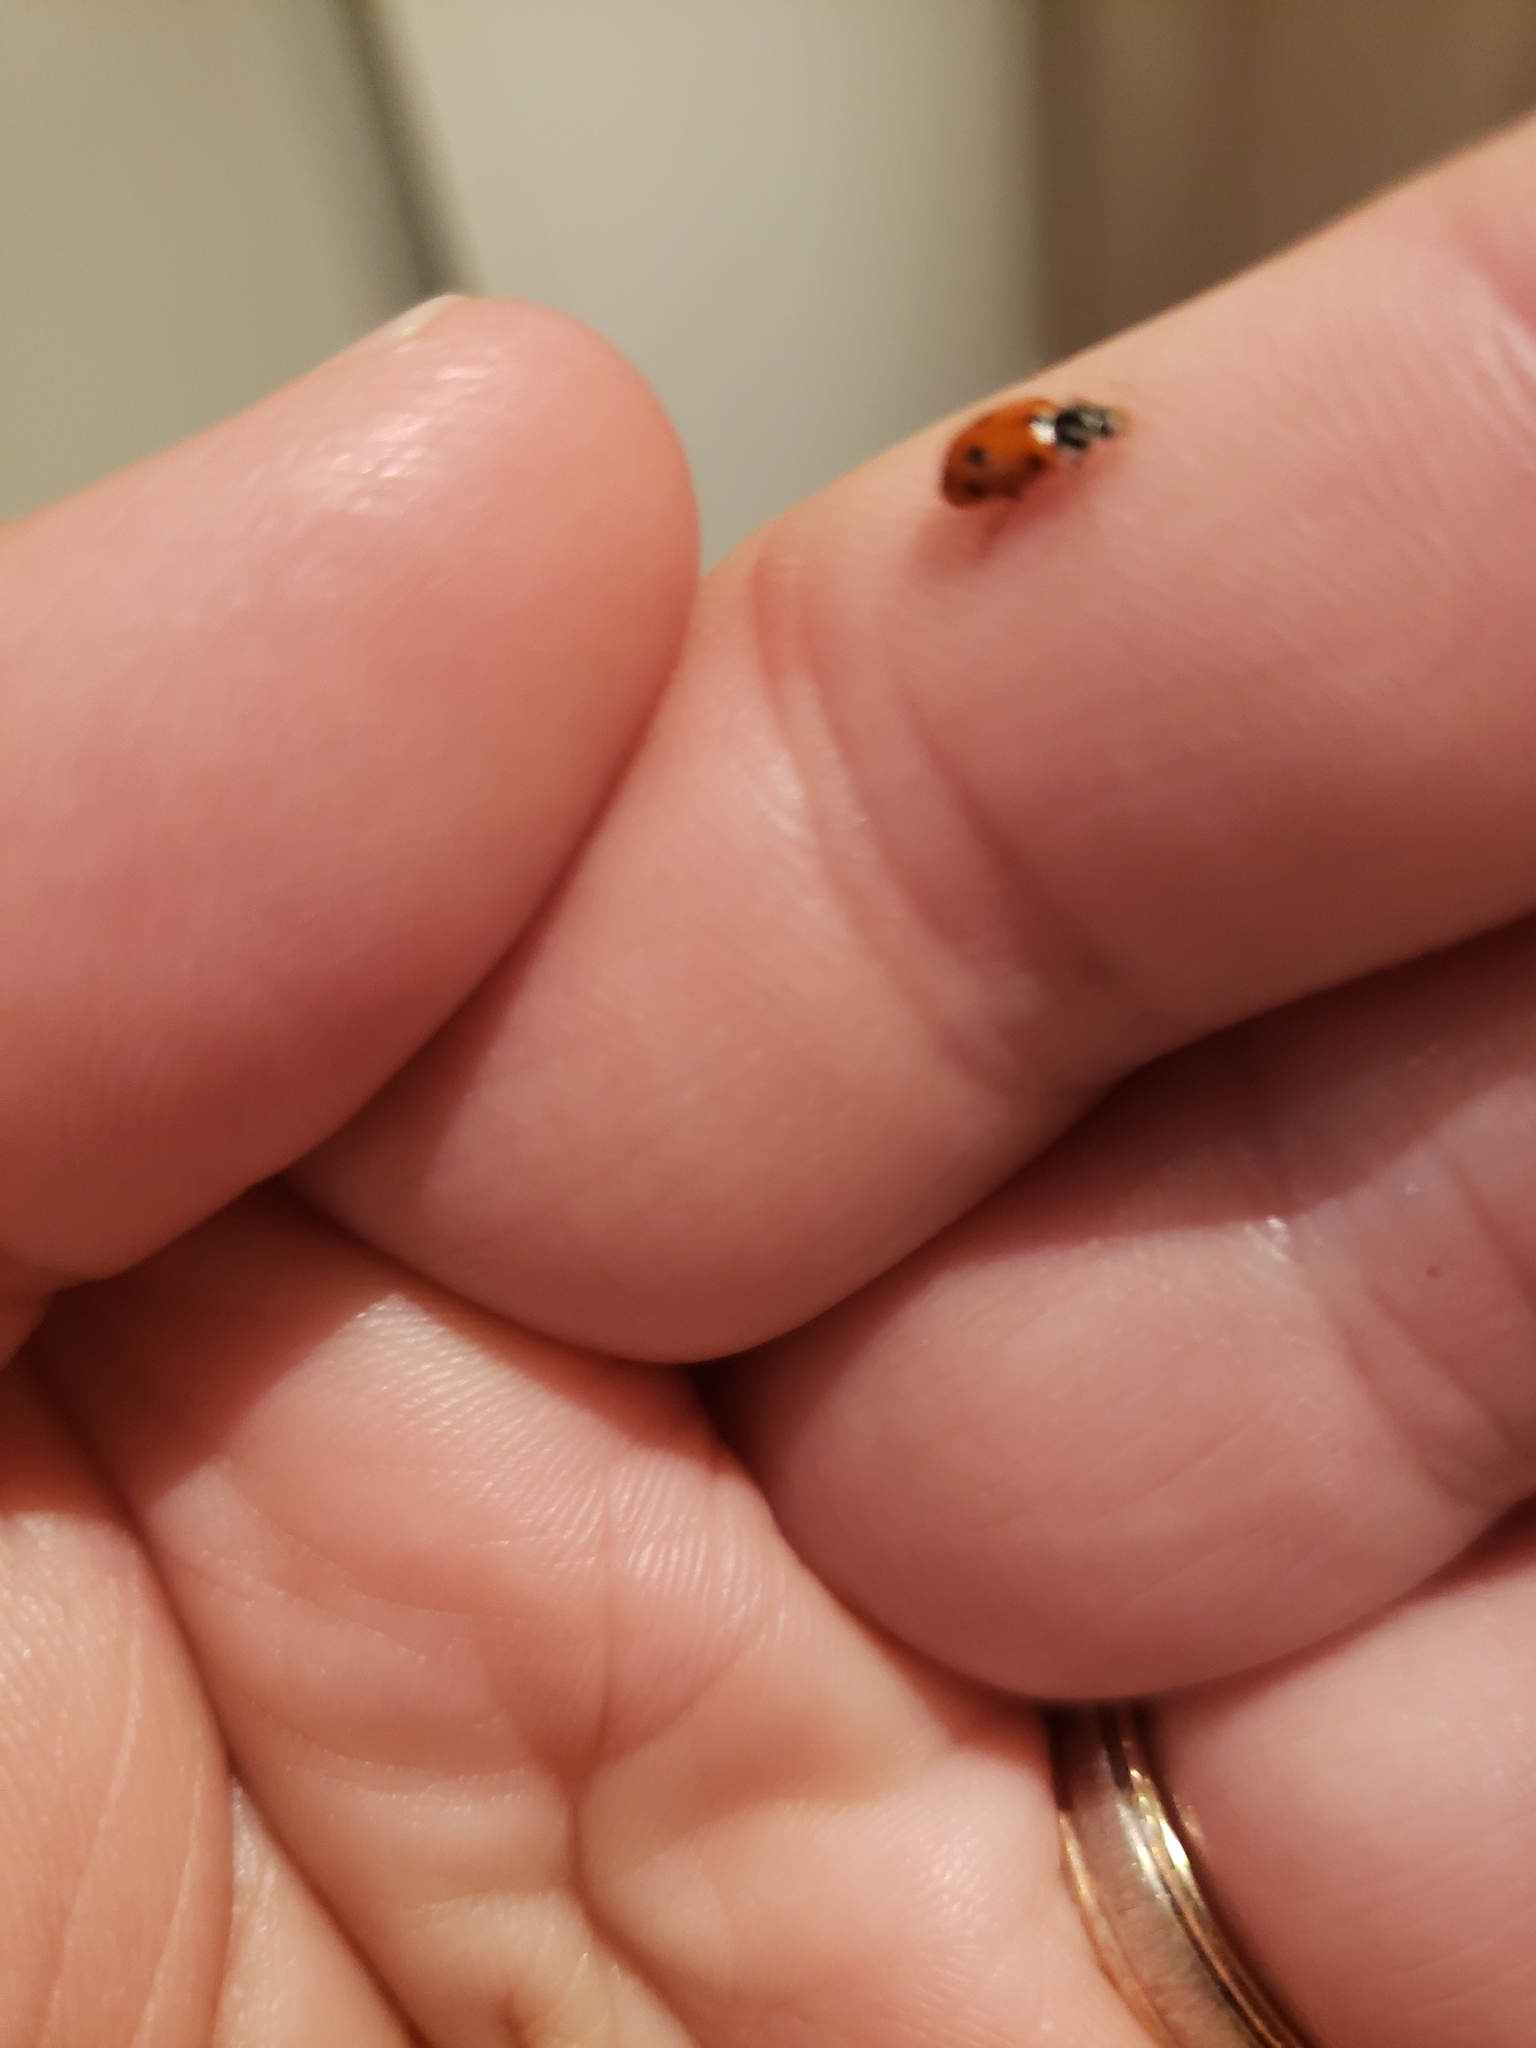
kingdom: Animalia
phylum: Arthropoda
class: Insecta
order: Coleoptera
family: Coccinellidae
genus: Hippodamia
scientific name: Hippodamia variegata
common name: Ladybird beetle
